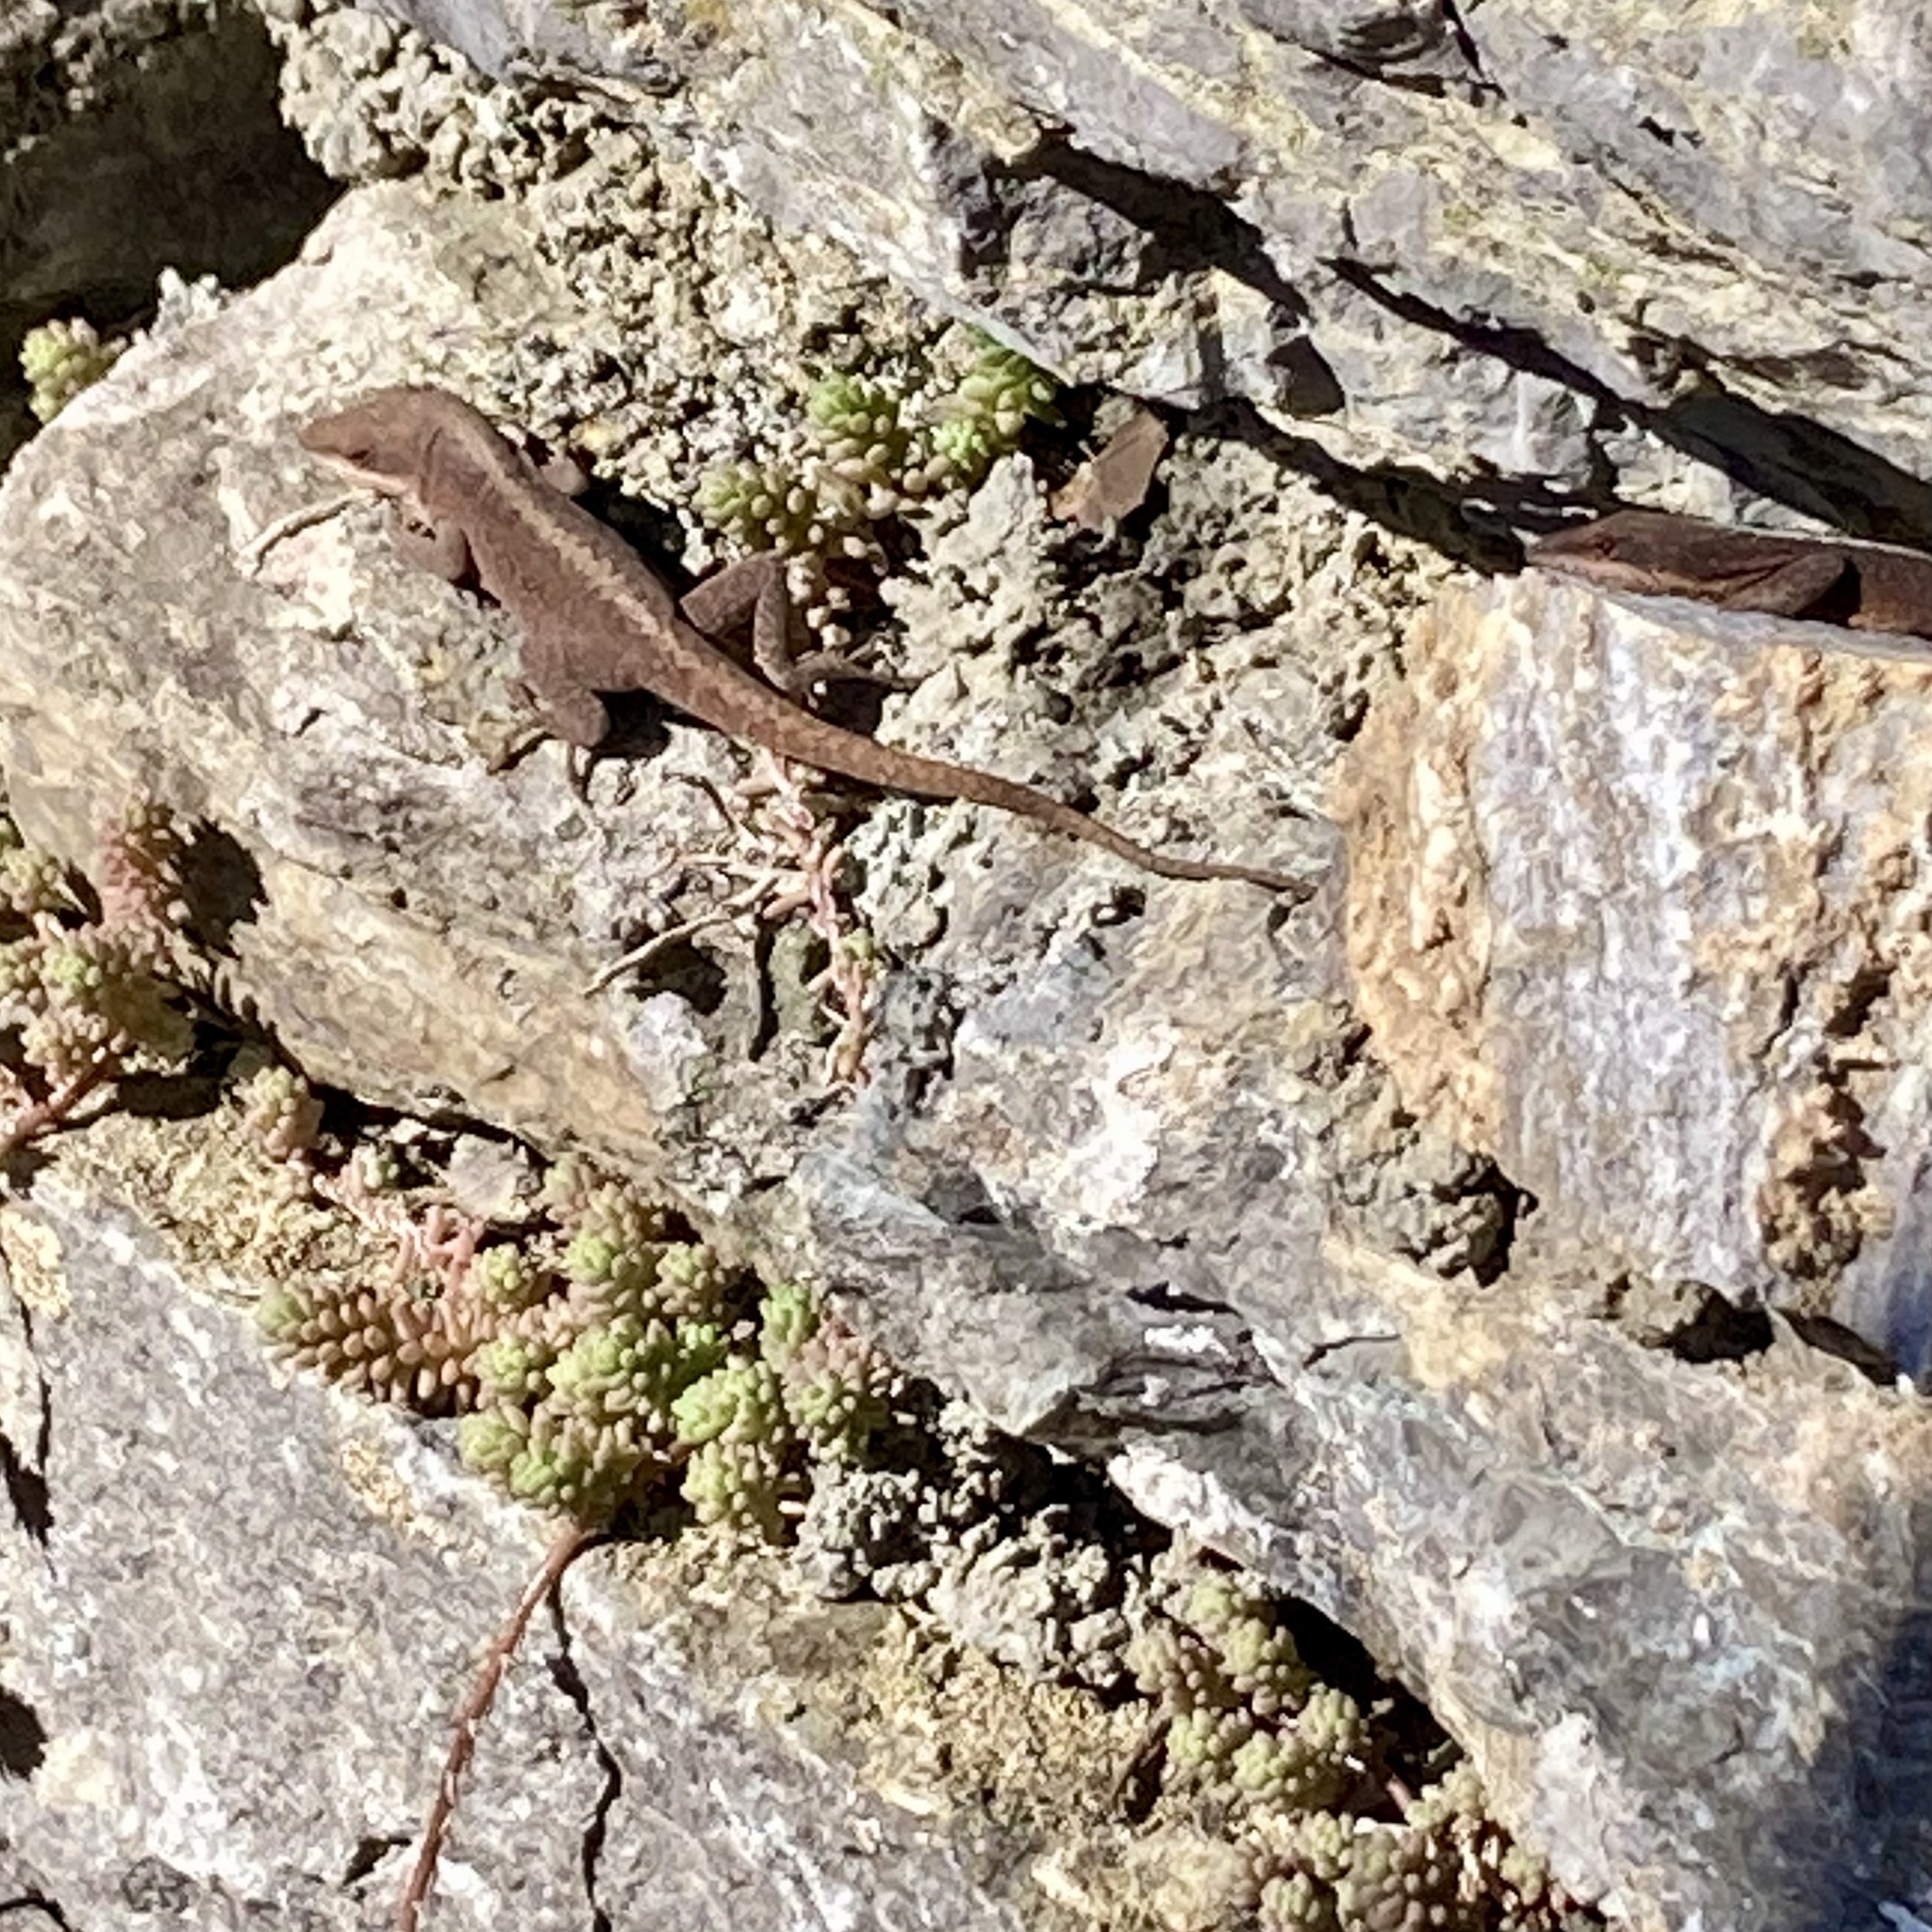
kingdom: Animalia
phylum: Chordata
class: Squamata
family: Dactyloidae
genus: Anolis
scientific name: Anolis carolinensis
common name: Green anole
